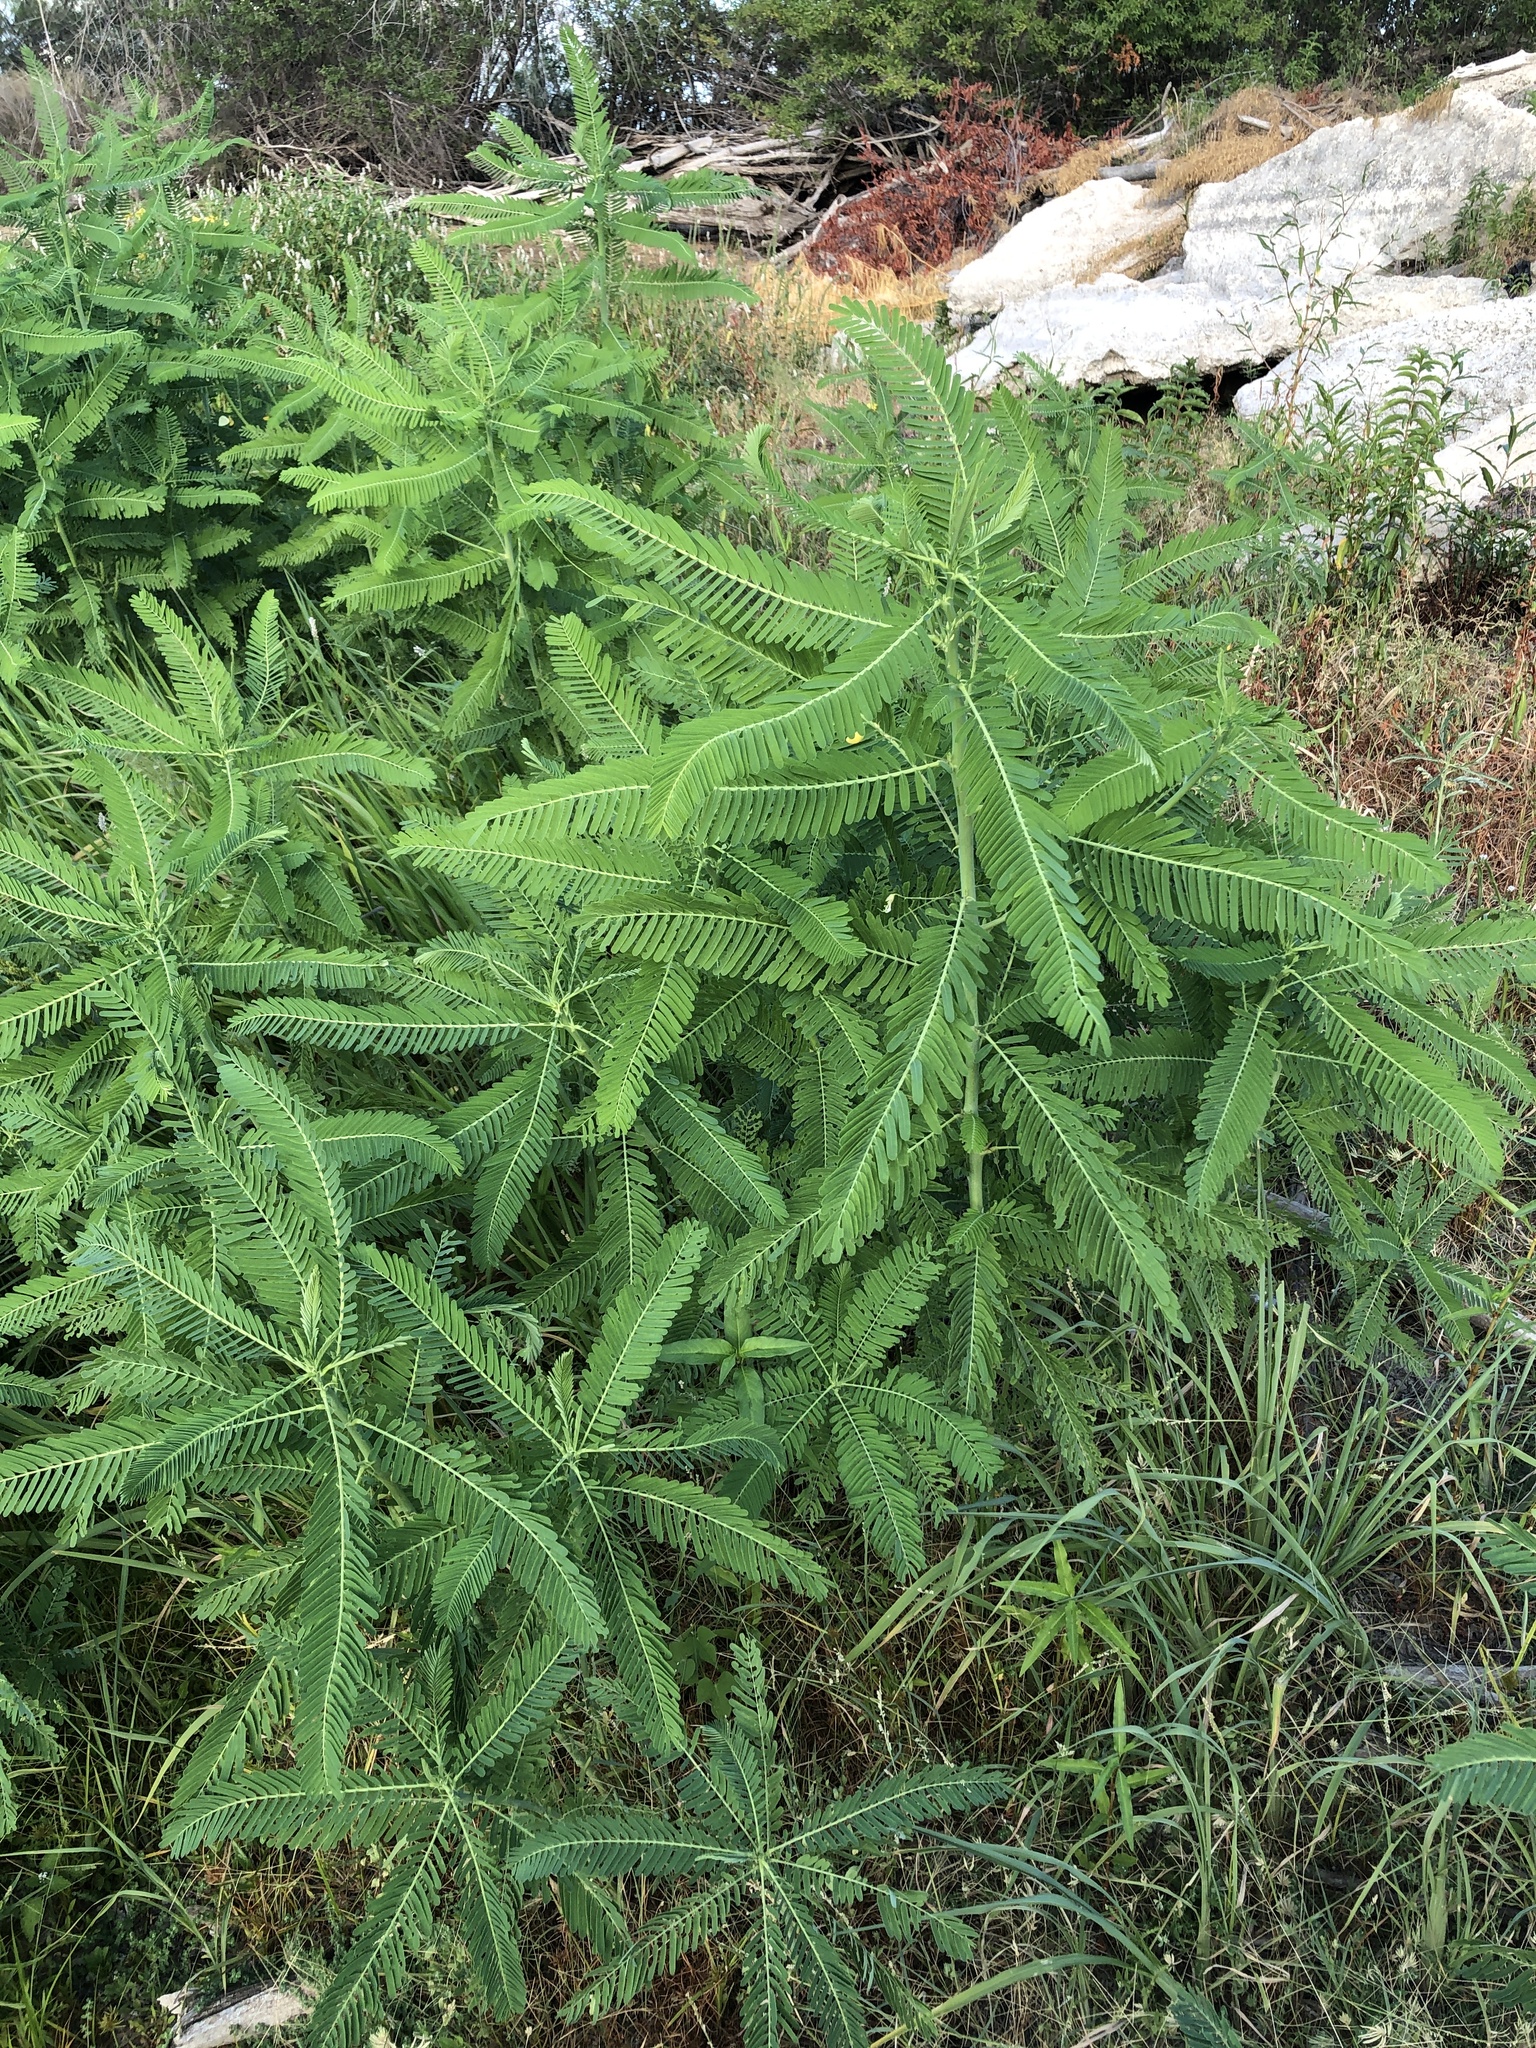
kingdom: Plantae
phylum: Tracheophyta
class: Magnoliopsida
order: Fabales
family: Fabaceae
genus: Sesbania
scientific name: Sesbania herbacea
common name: Bigpod sesbania
